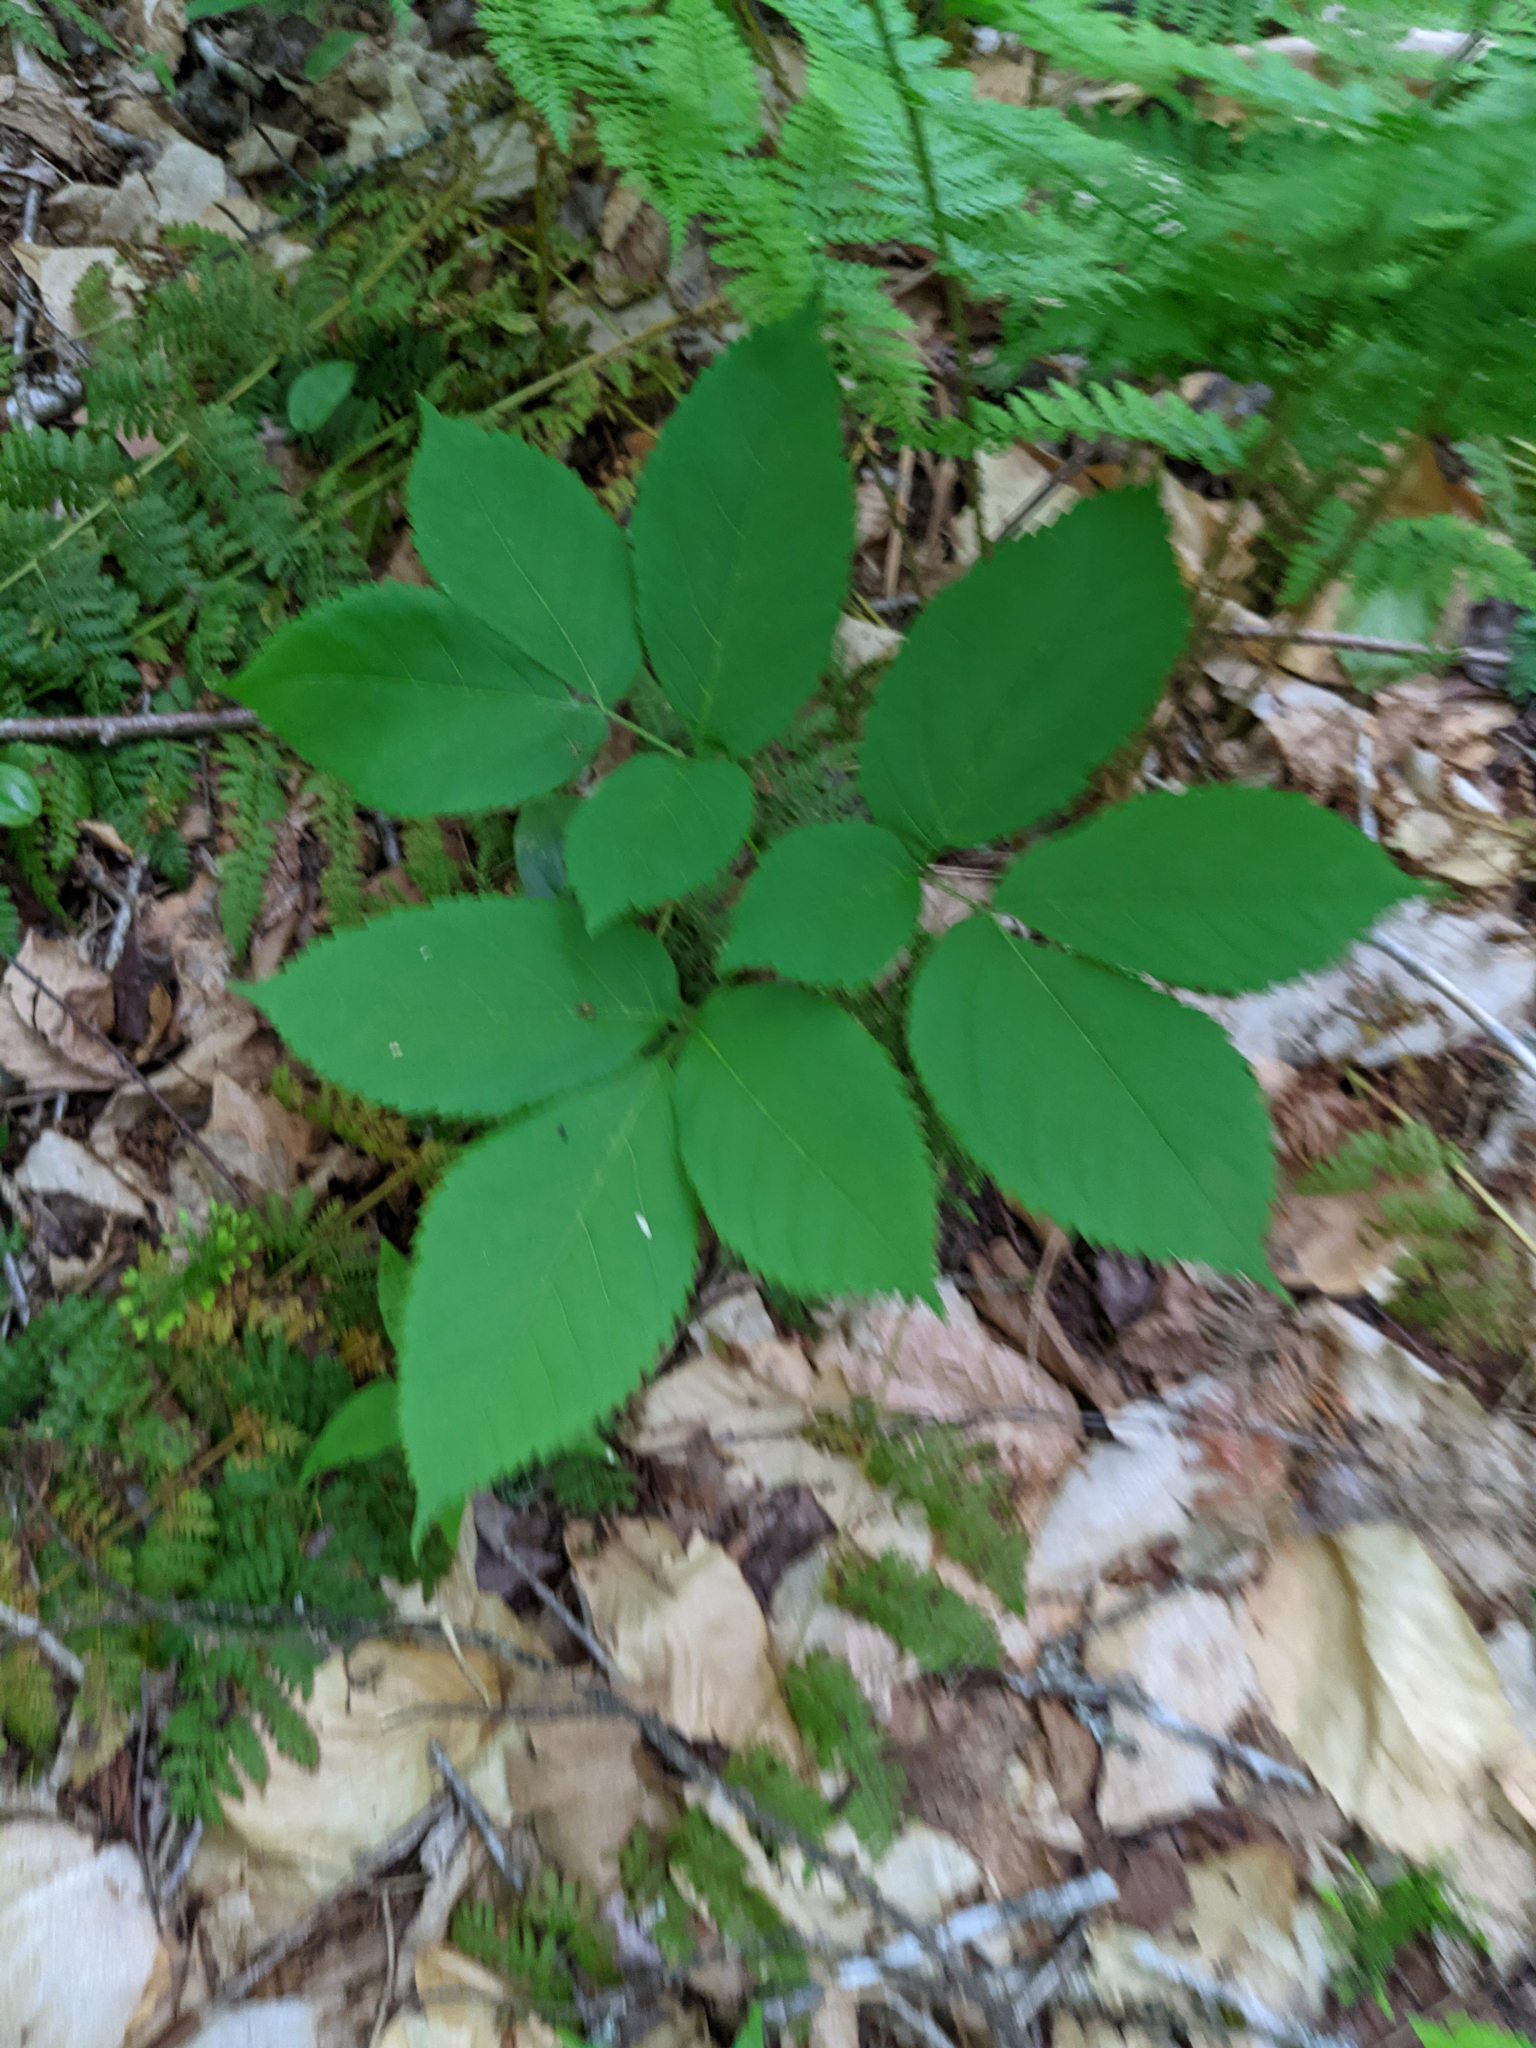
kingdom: Plantae
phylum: Tracheophyta
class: Magnoliopsida
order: Apiales
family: Araliaceae
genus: Aralia
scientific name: Aralia nudicaulis
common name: Wild sarsaparilla
